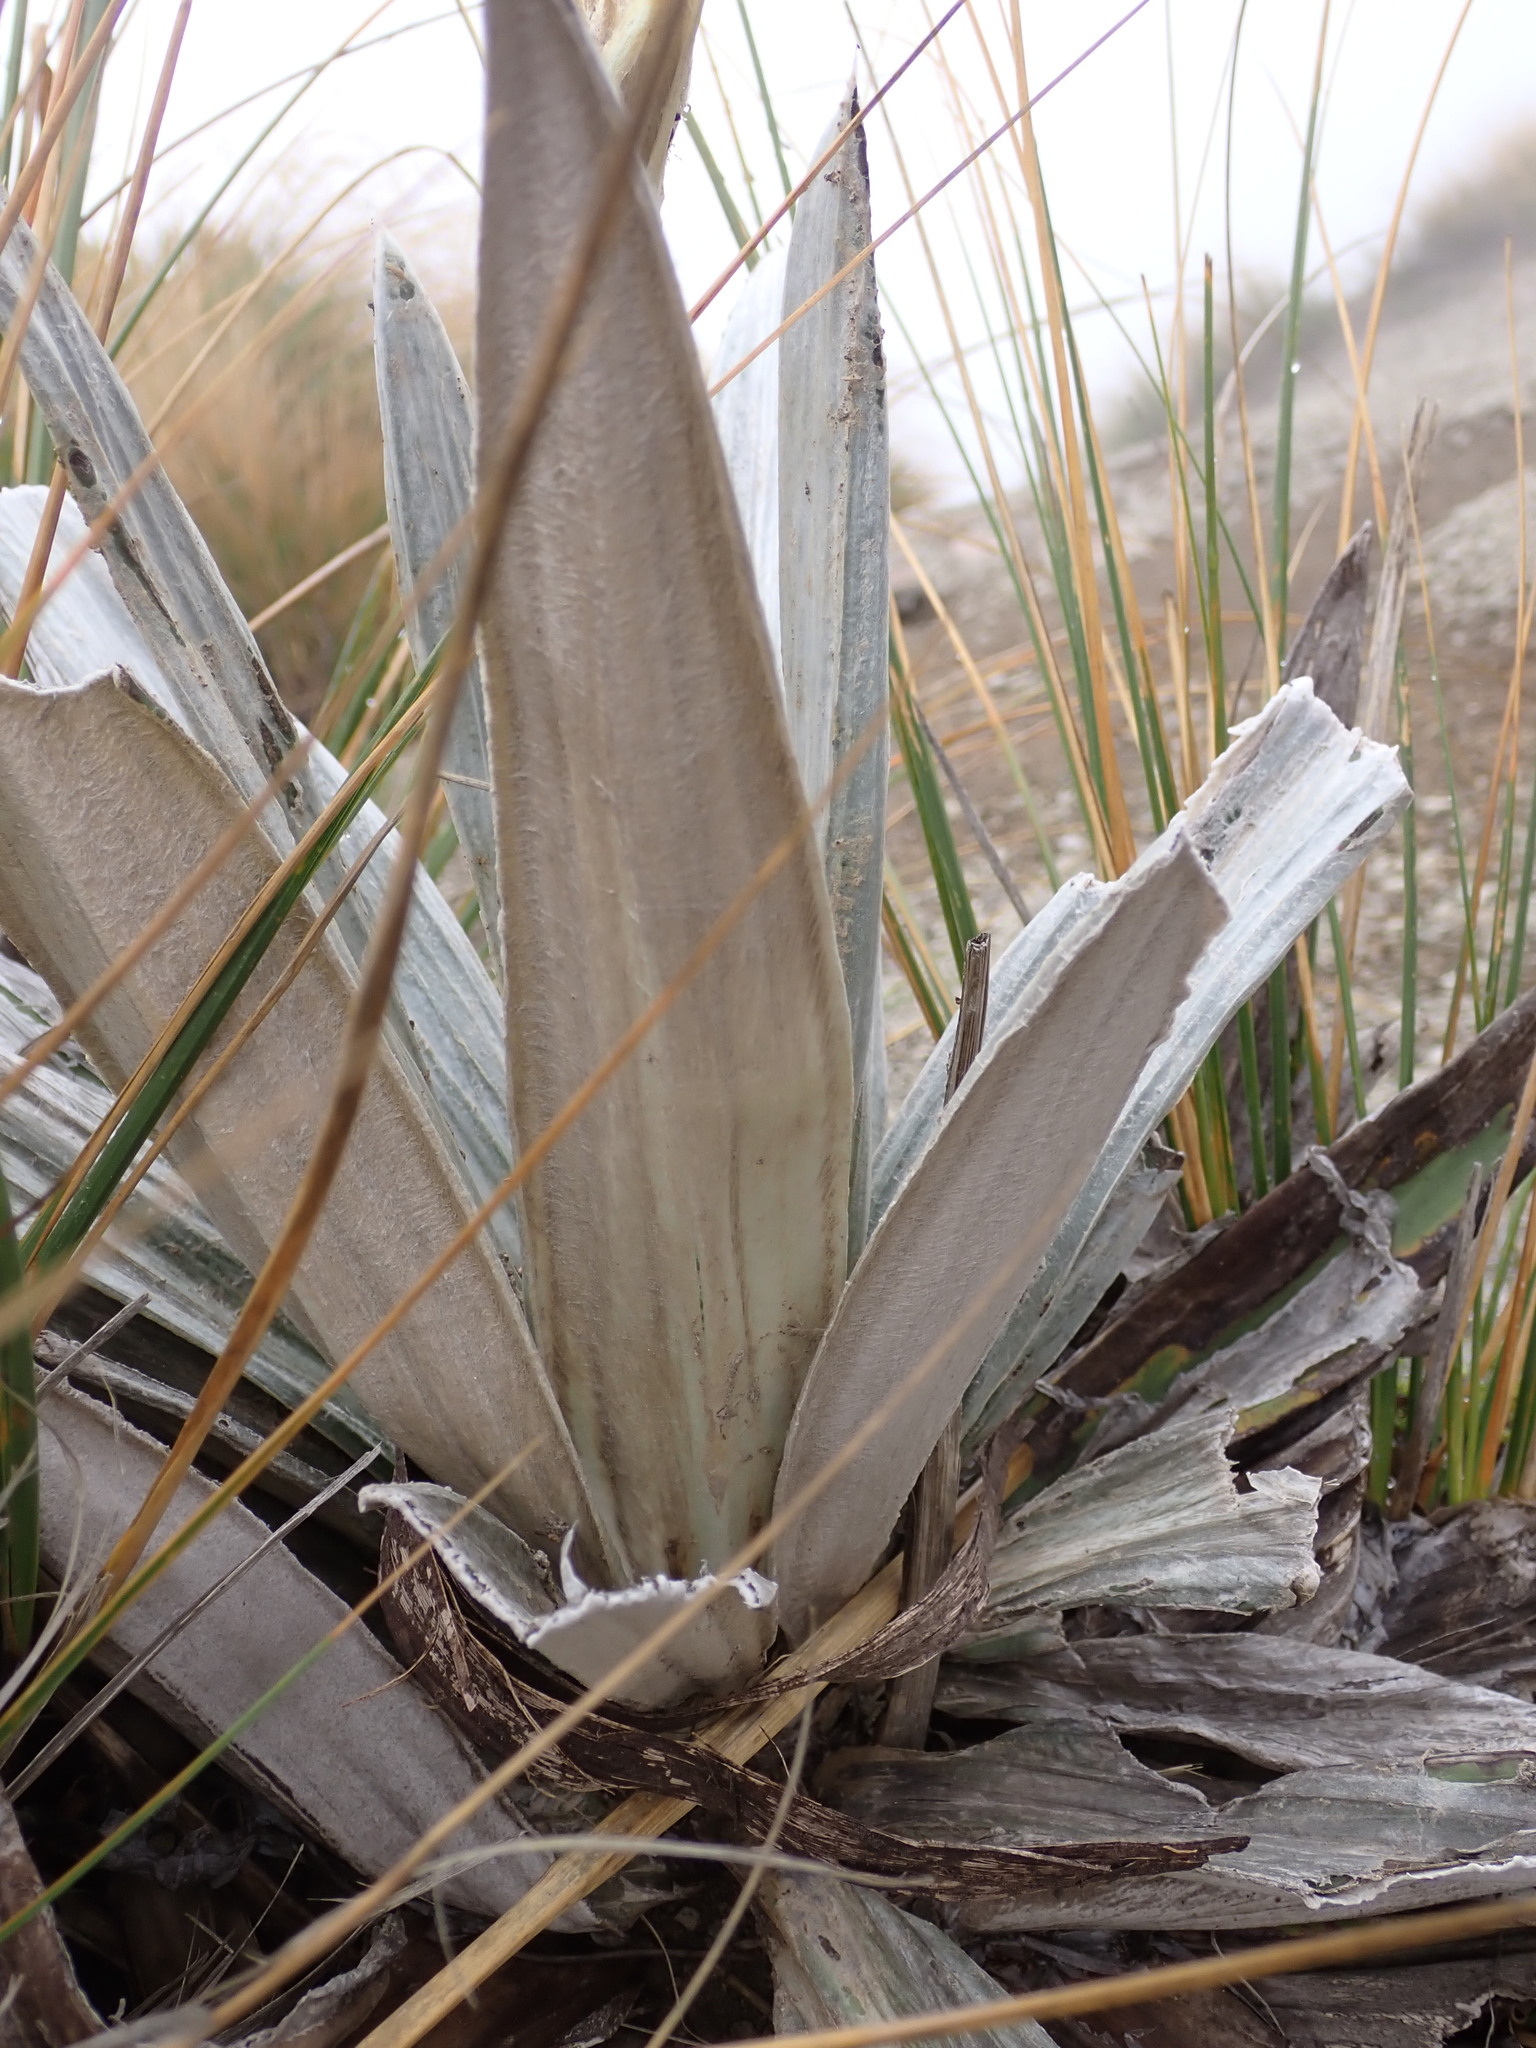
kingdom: Plantae
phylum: Tracheophyta
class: Magnoliopsida
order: Asterales
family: Asteraceae
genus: Celmisia
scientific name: Celmisia semicordata
